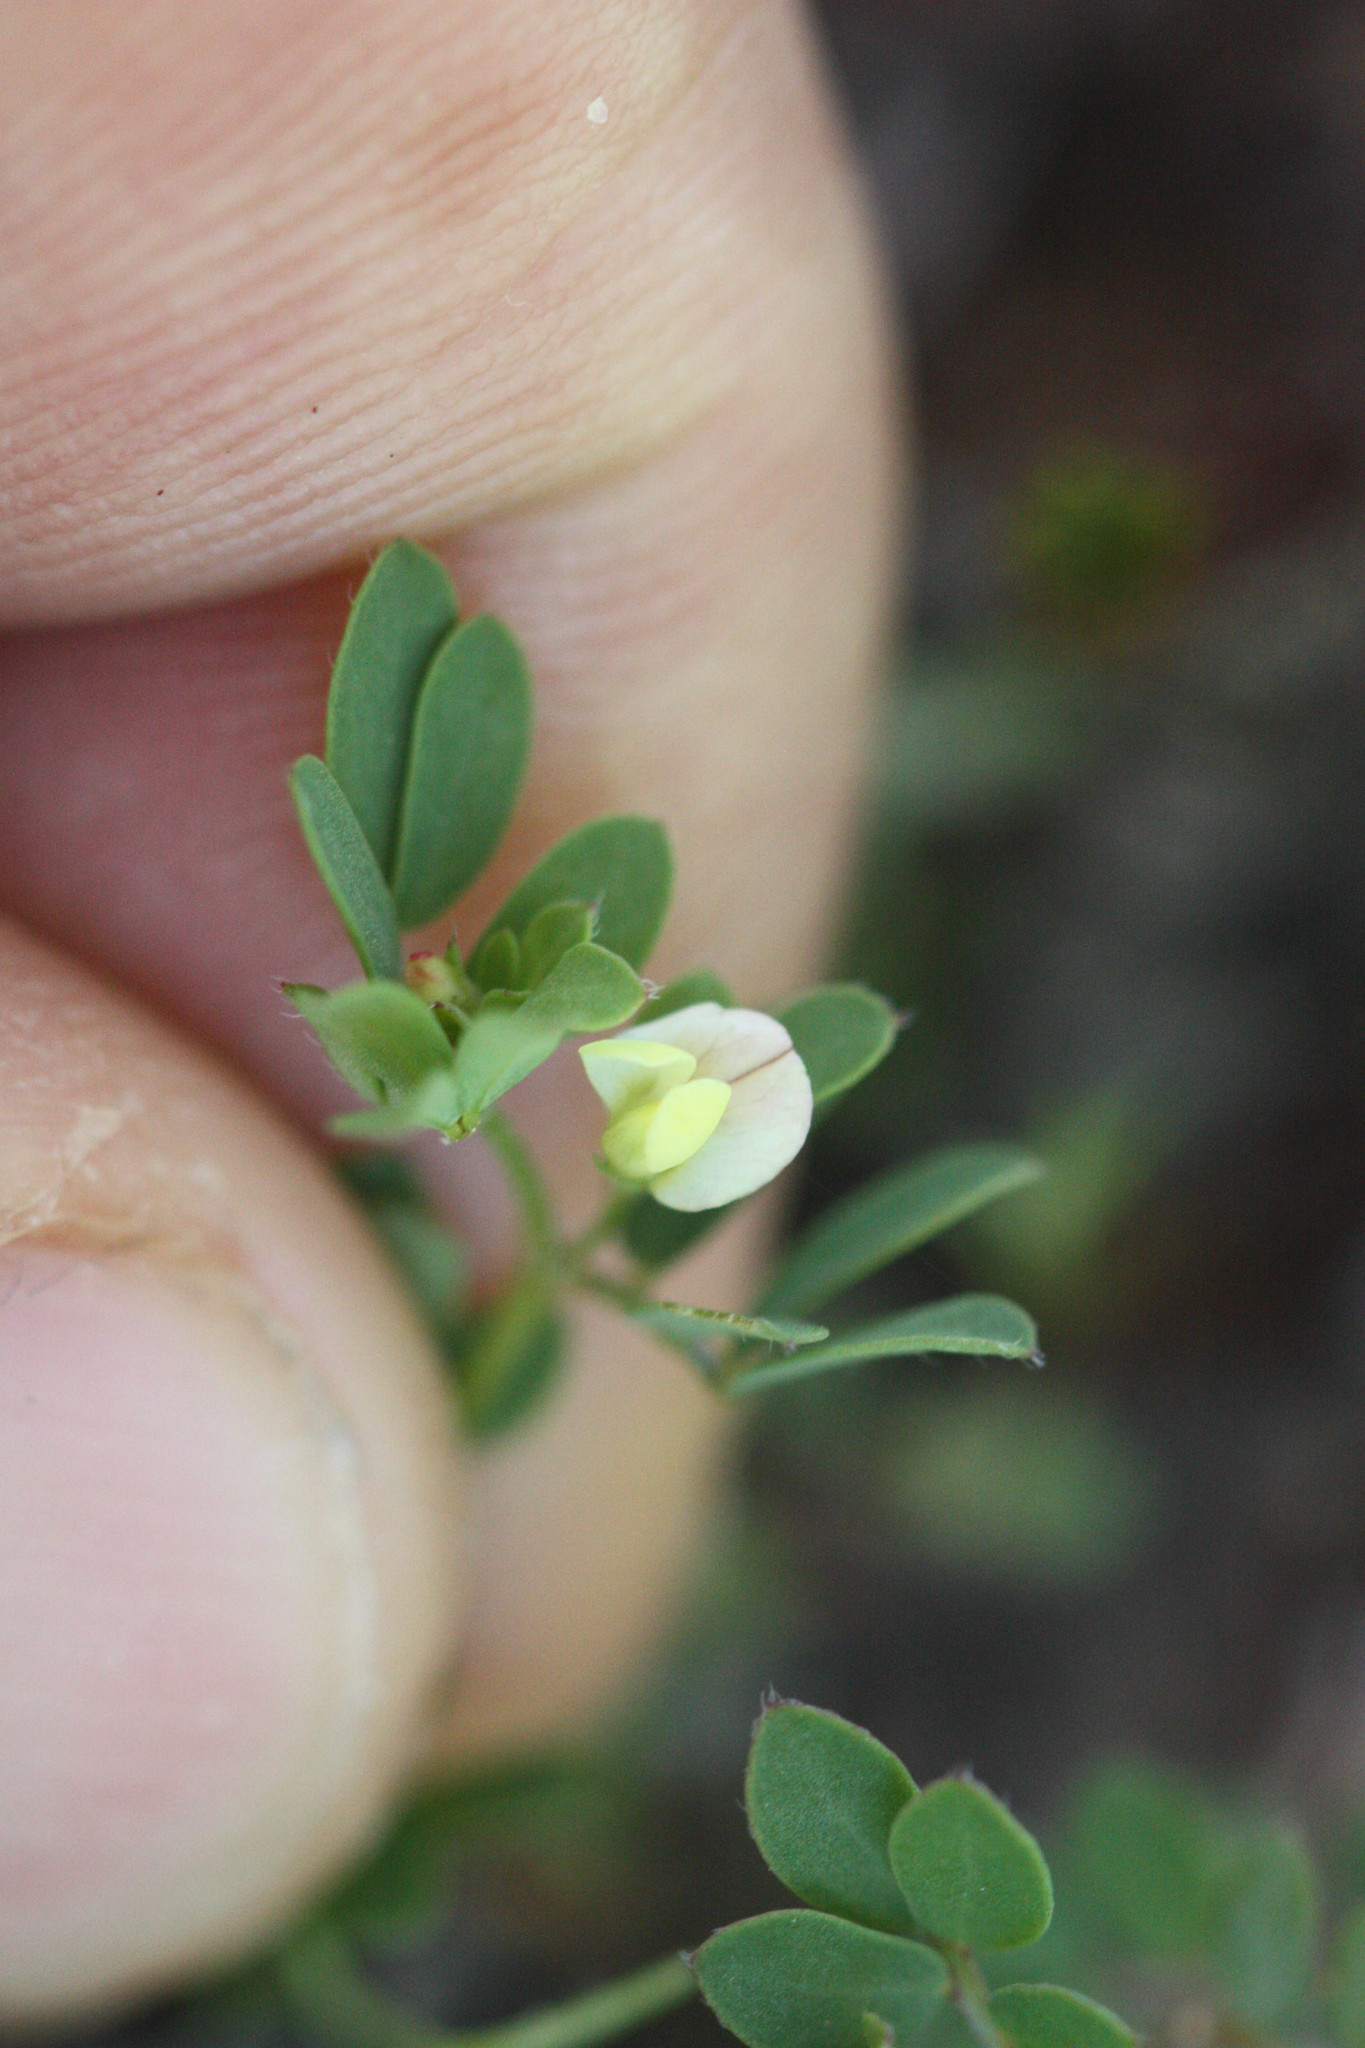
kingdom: Plantae
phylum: Tracheophyta
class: Magnoliopsida
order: Fabales
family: Fabaceae
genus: Acmispon
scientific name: Acmispon parviflorus
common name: Desert deer-vetch
